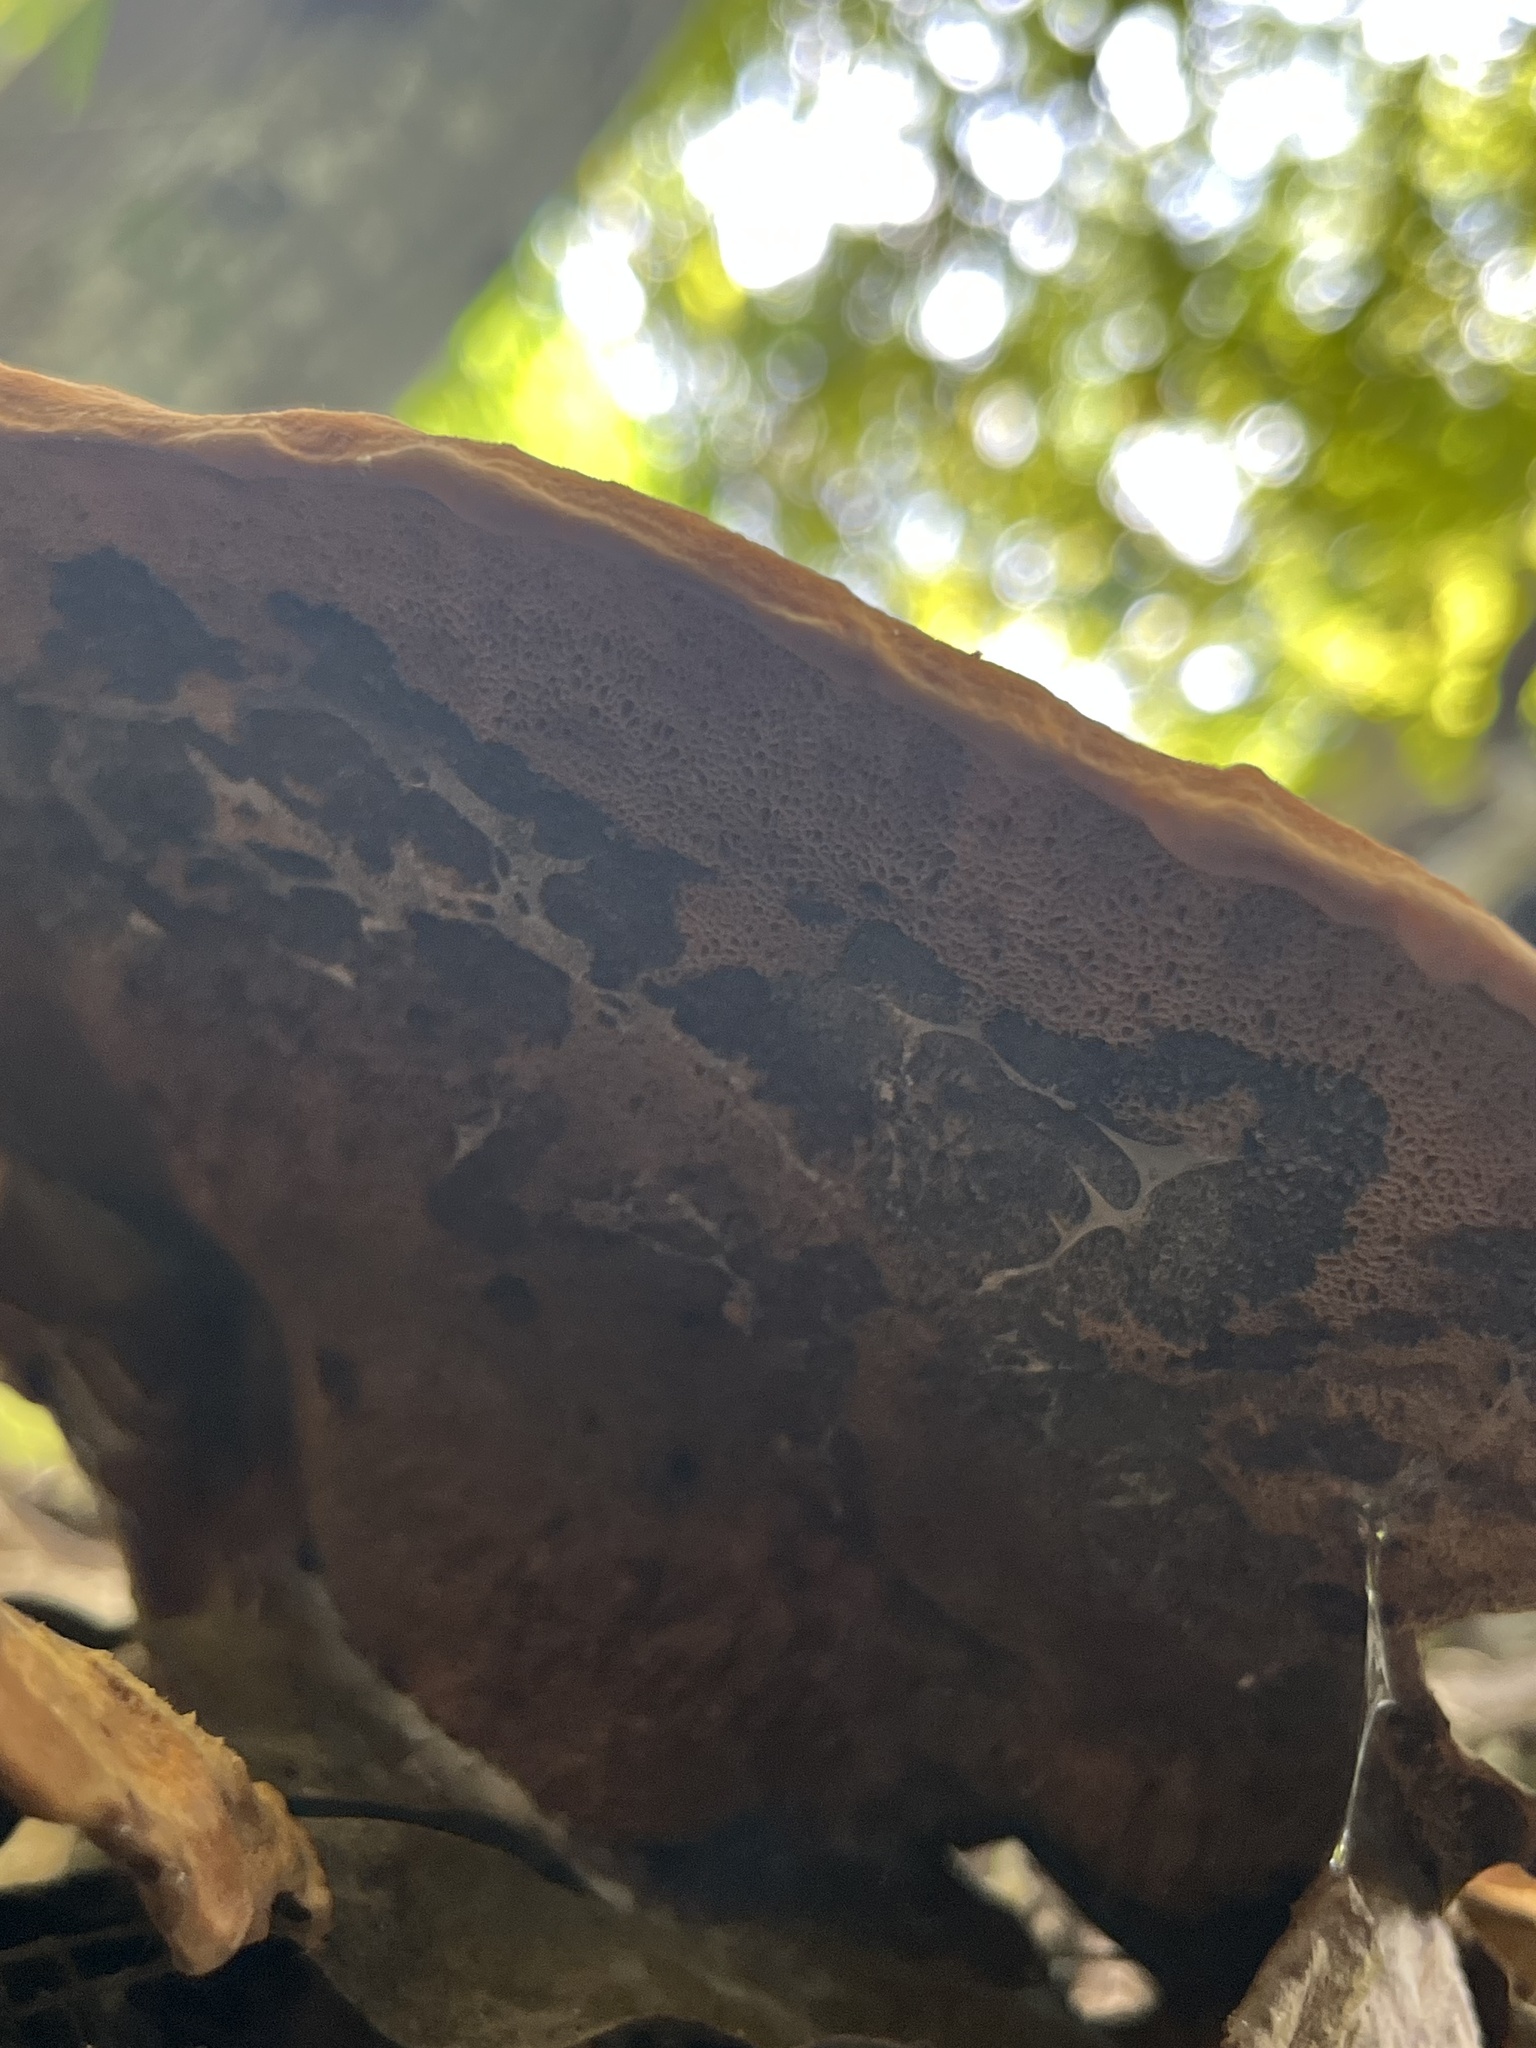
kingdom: Fungi
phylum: Basidiomycota
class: Agaricomycetes
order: Polyporales
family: Laetiporaceae
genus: Phaeolus
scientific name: Phaeolus schweinitzii
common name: Dyer's mazegill
